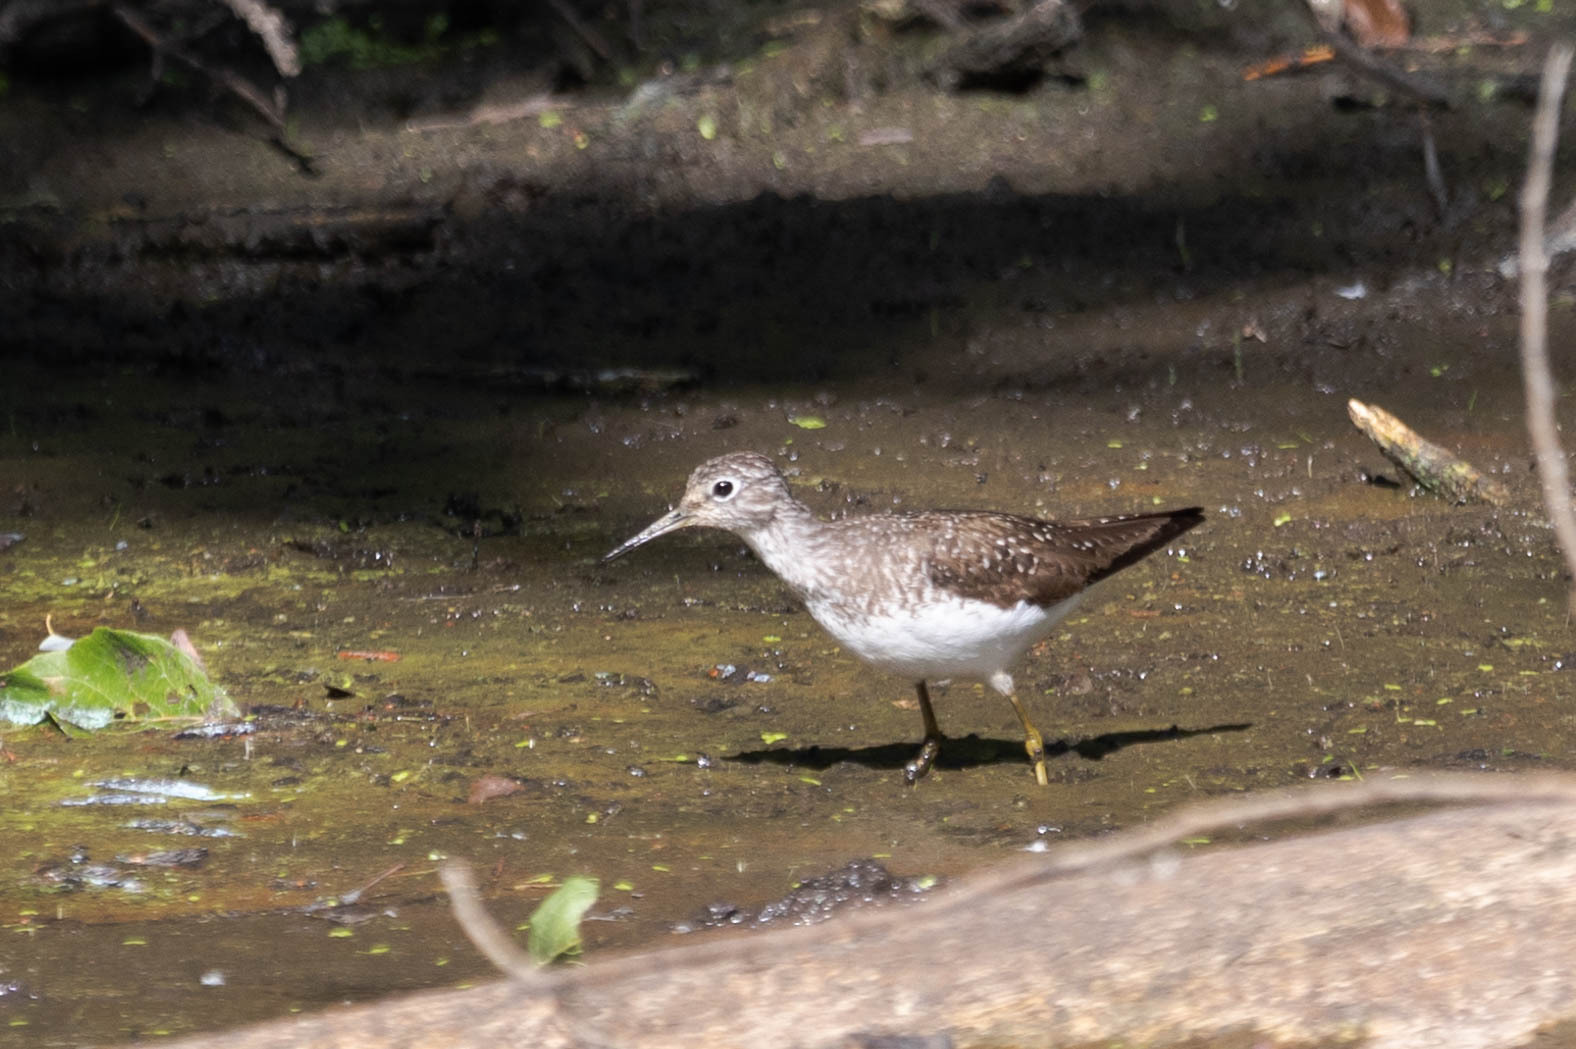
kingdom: Animalia
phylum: Chordata
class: Aves
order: Charadriiformes
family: Scolopacidae
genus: Tringa
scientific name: Tringa solitaria
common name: Solitary sandpiper
